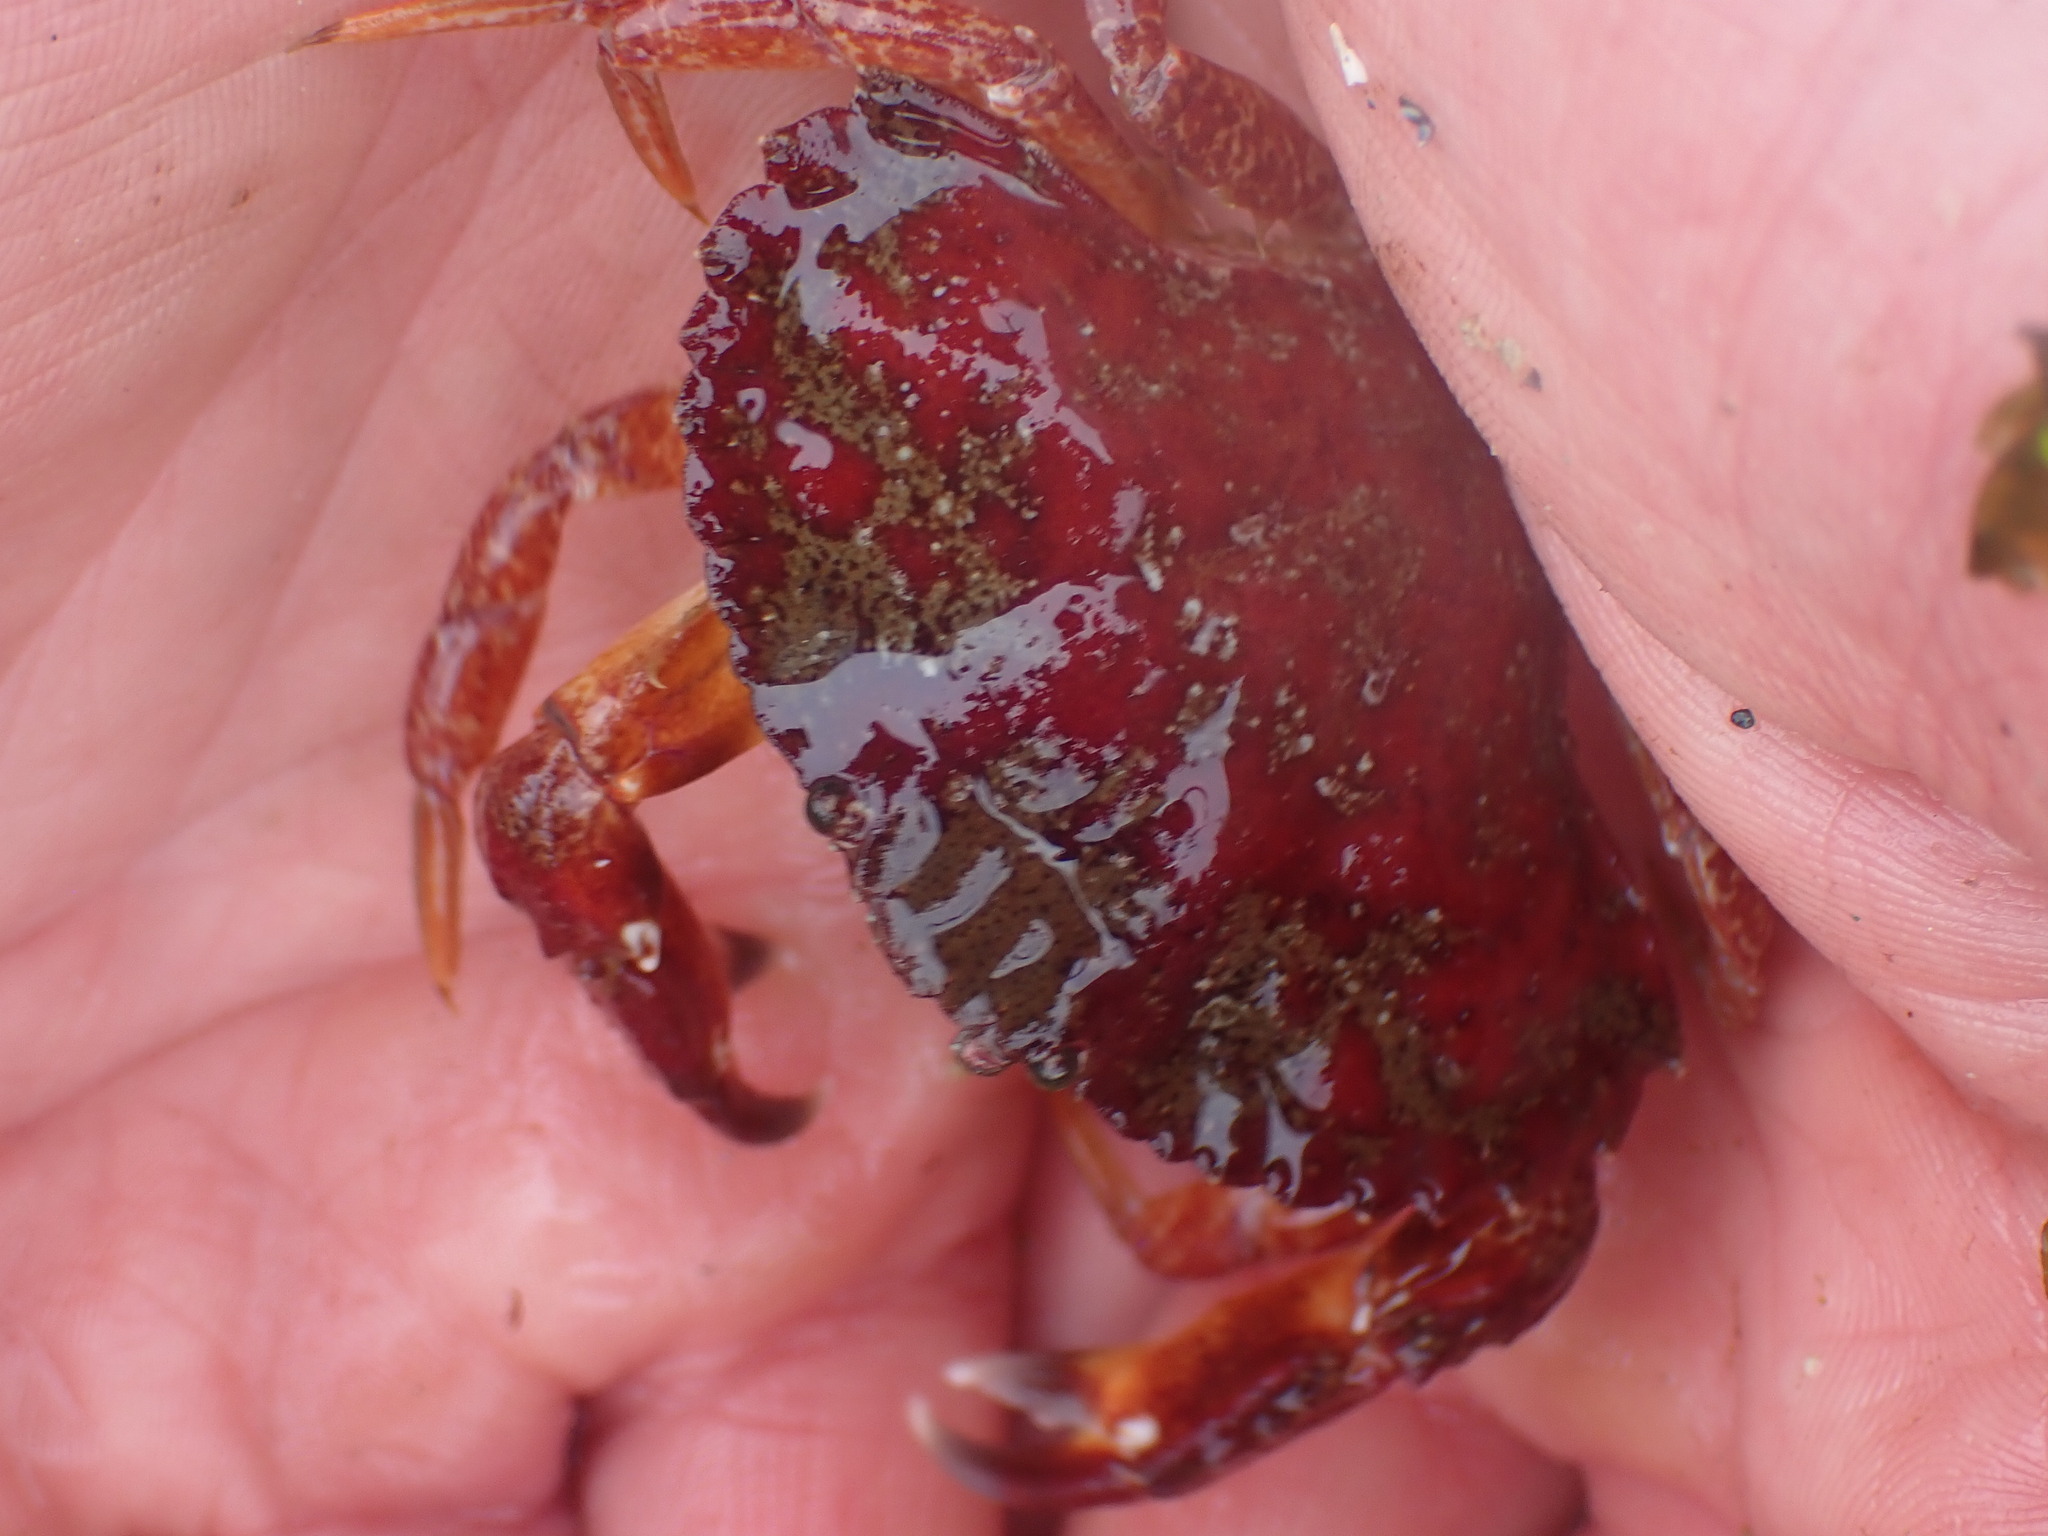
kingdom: Animalia
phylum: Arthropoda
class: Malacostraca
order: Decapoda
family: Cancridae
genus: Cancer
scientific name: Cancer productus
